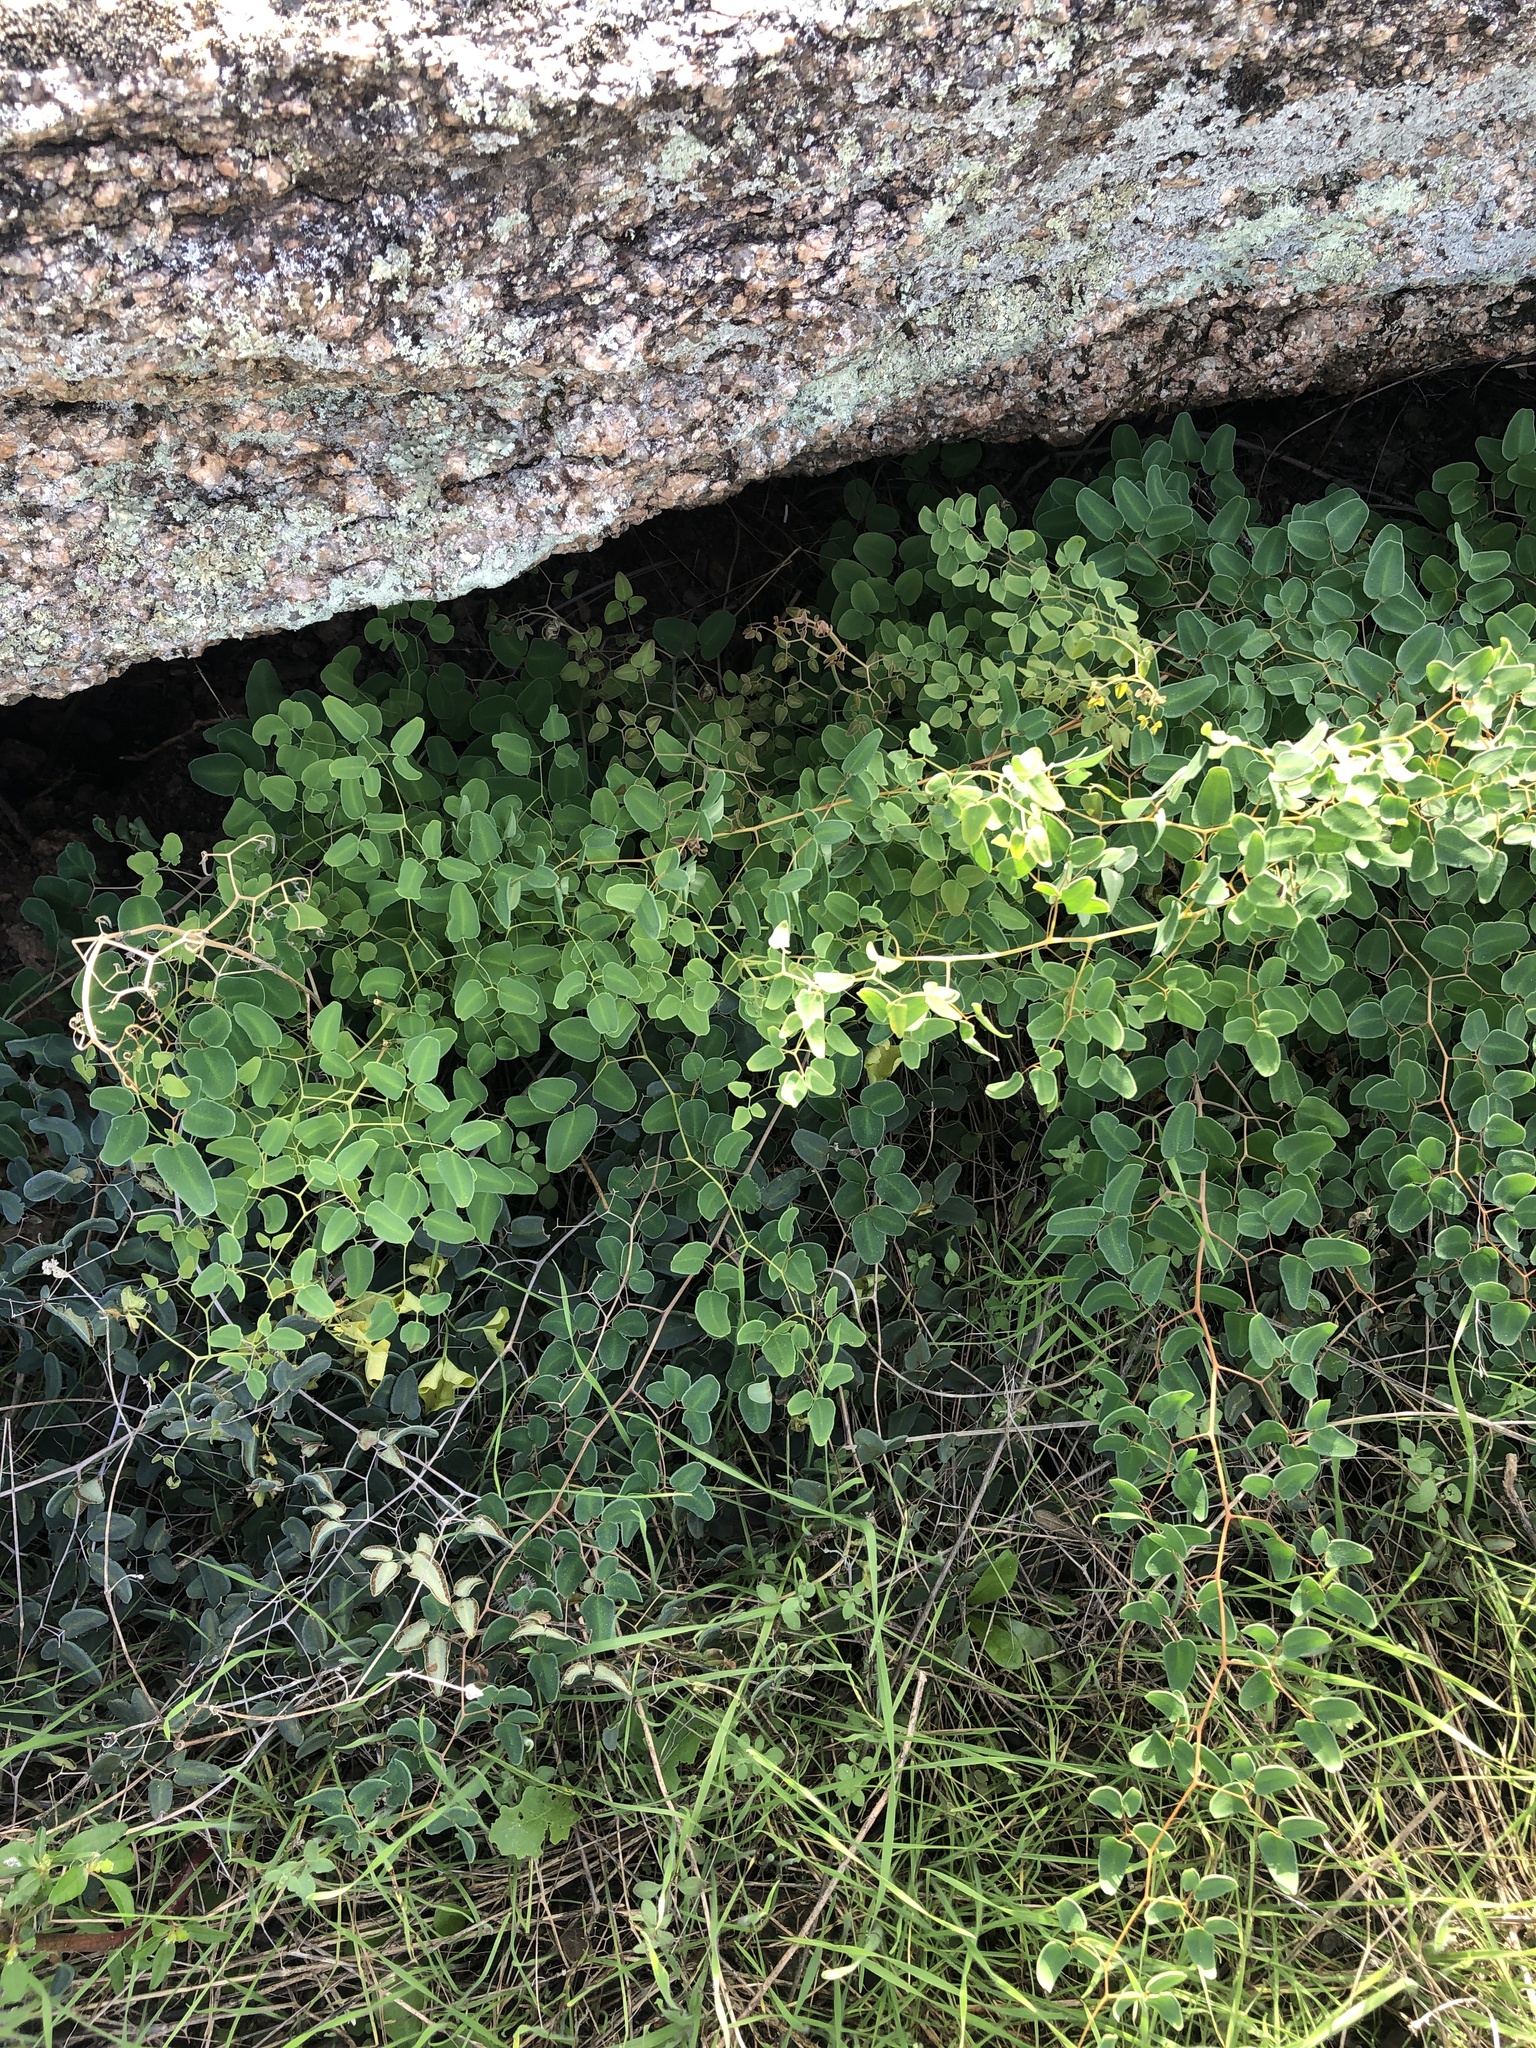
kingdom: Plantae
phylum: Tracheophyta
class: Polypodiopsida
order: Polypodiales
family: Pteridaceae
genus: Pellaea
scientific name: Pellaea ovata
